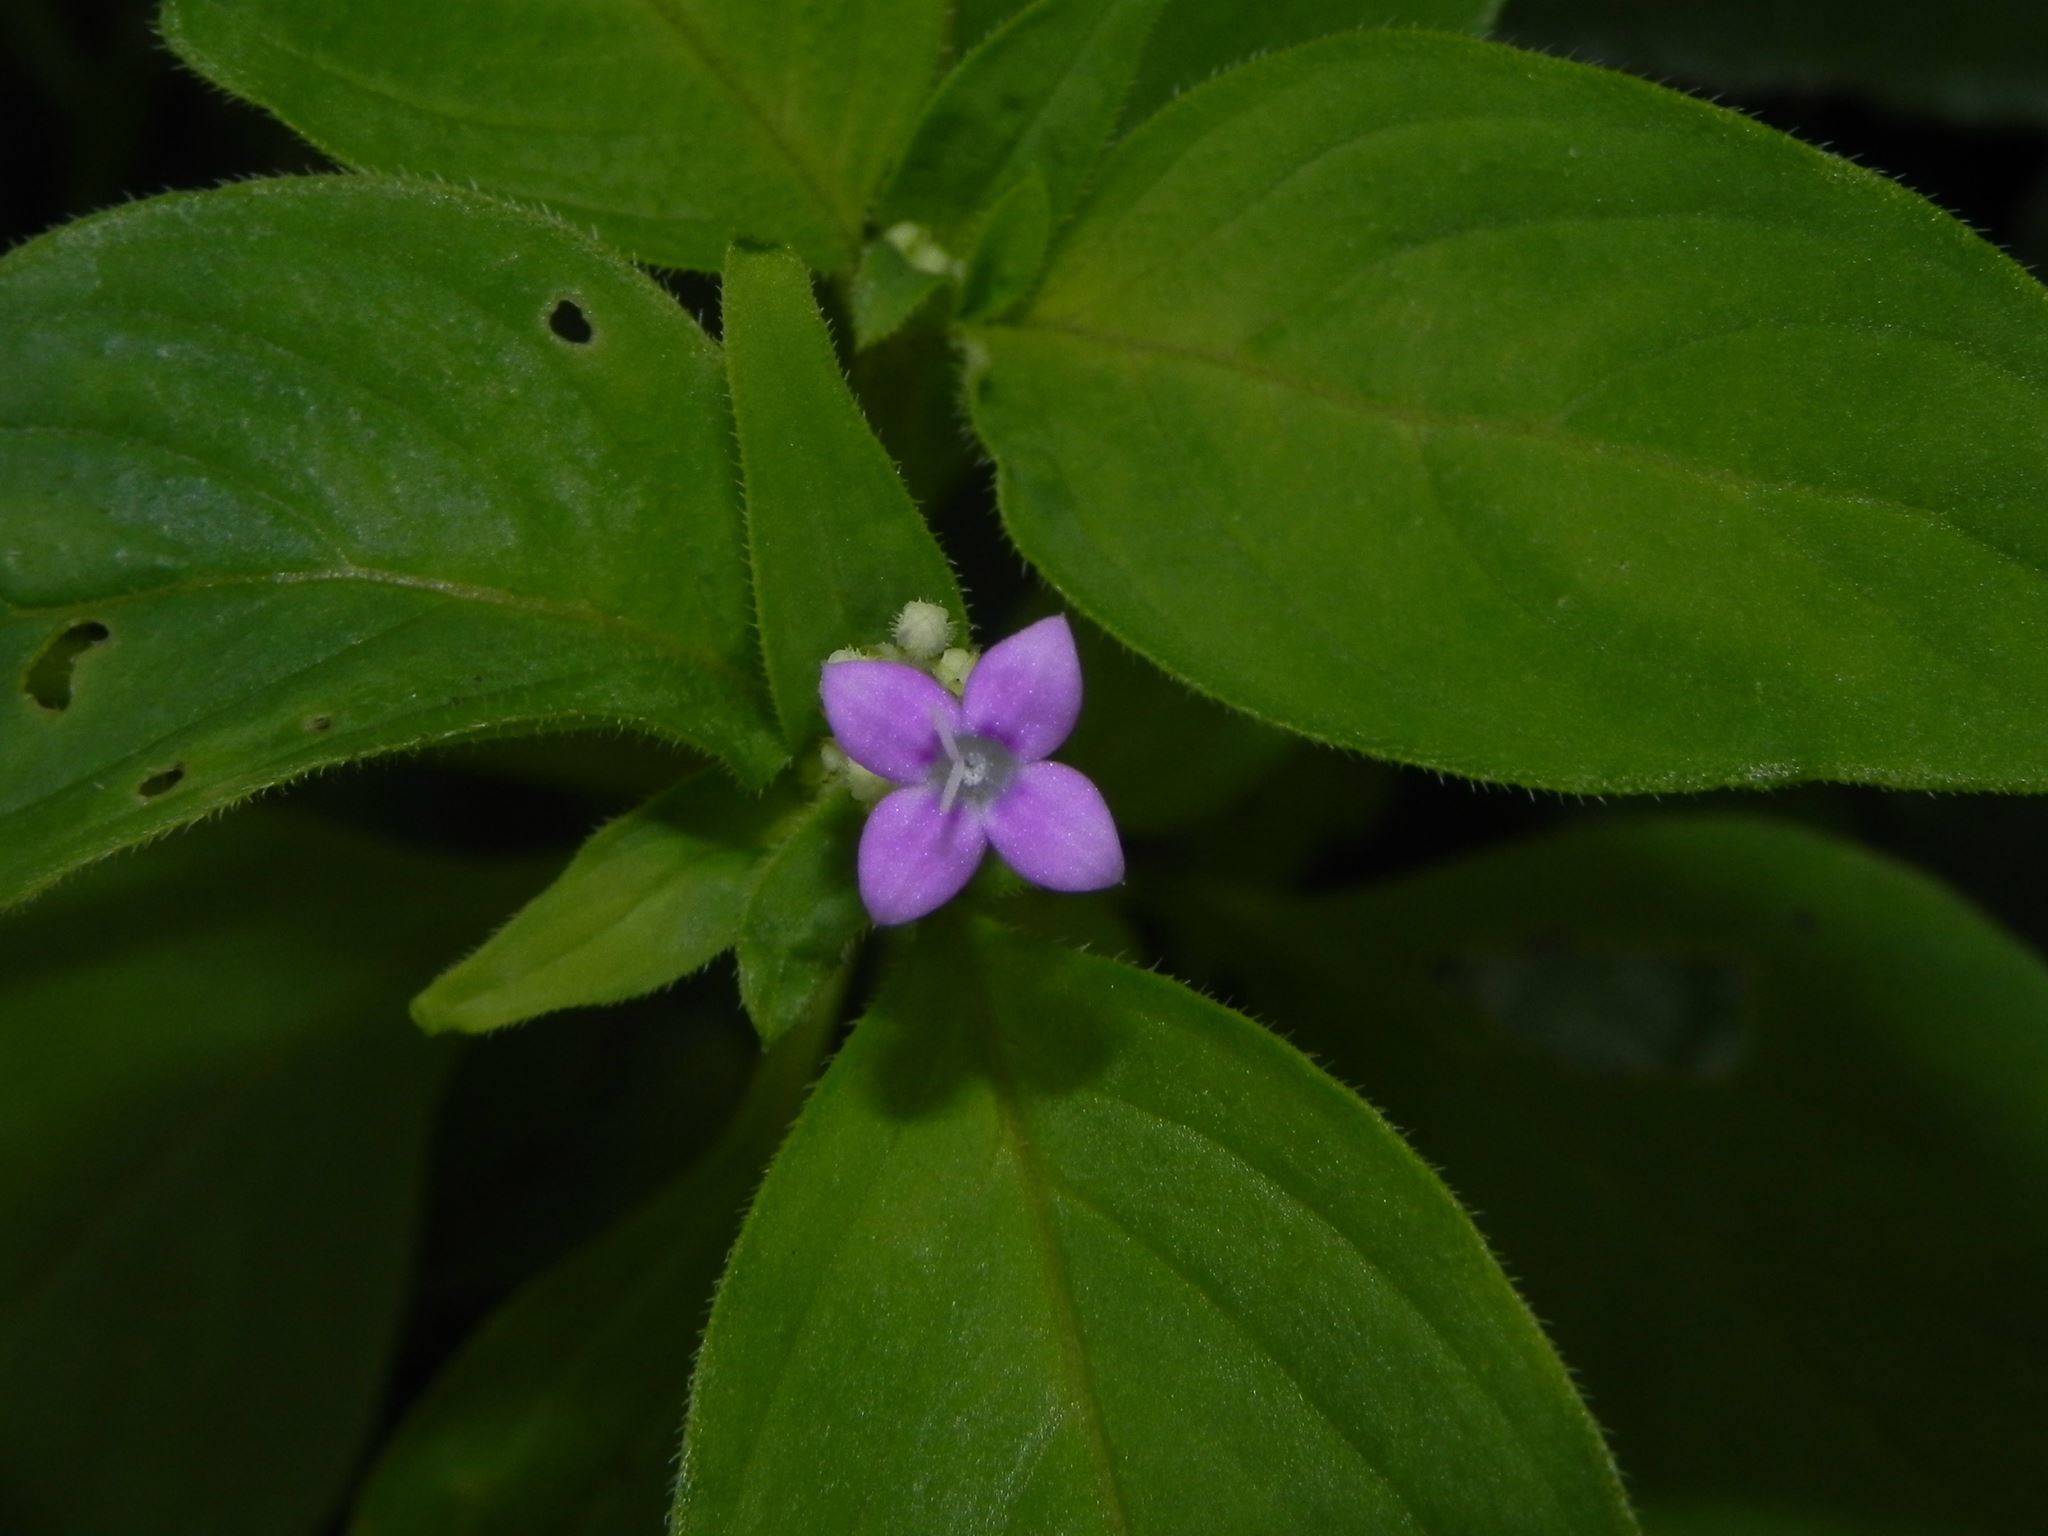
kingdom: Plantae
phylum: Tracheophyta
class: Magnoliopsida
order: Gentianales
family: Rubiaceae
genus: Neanotis
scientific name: Neanotis montholonii
